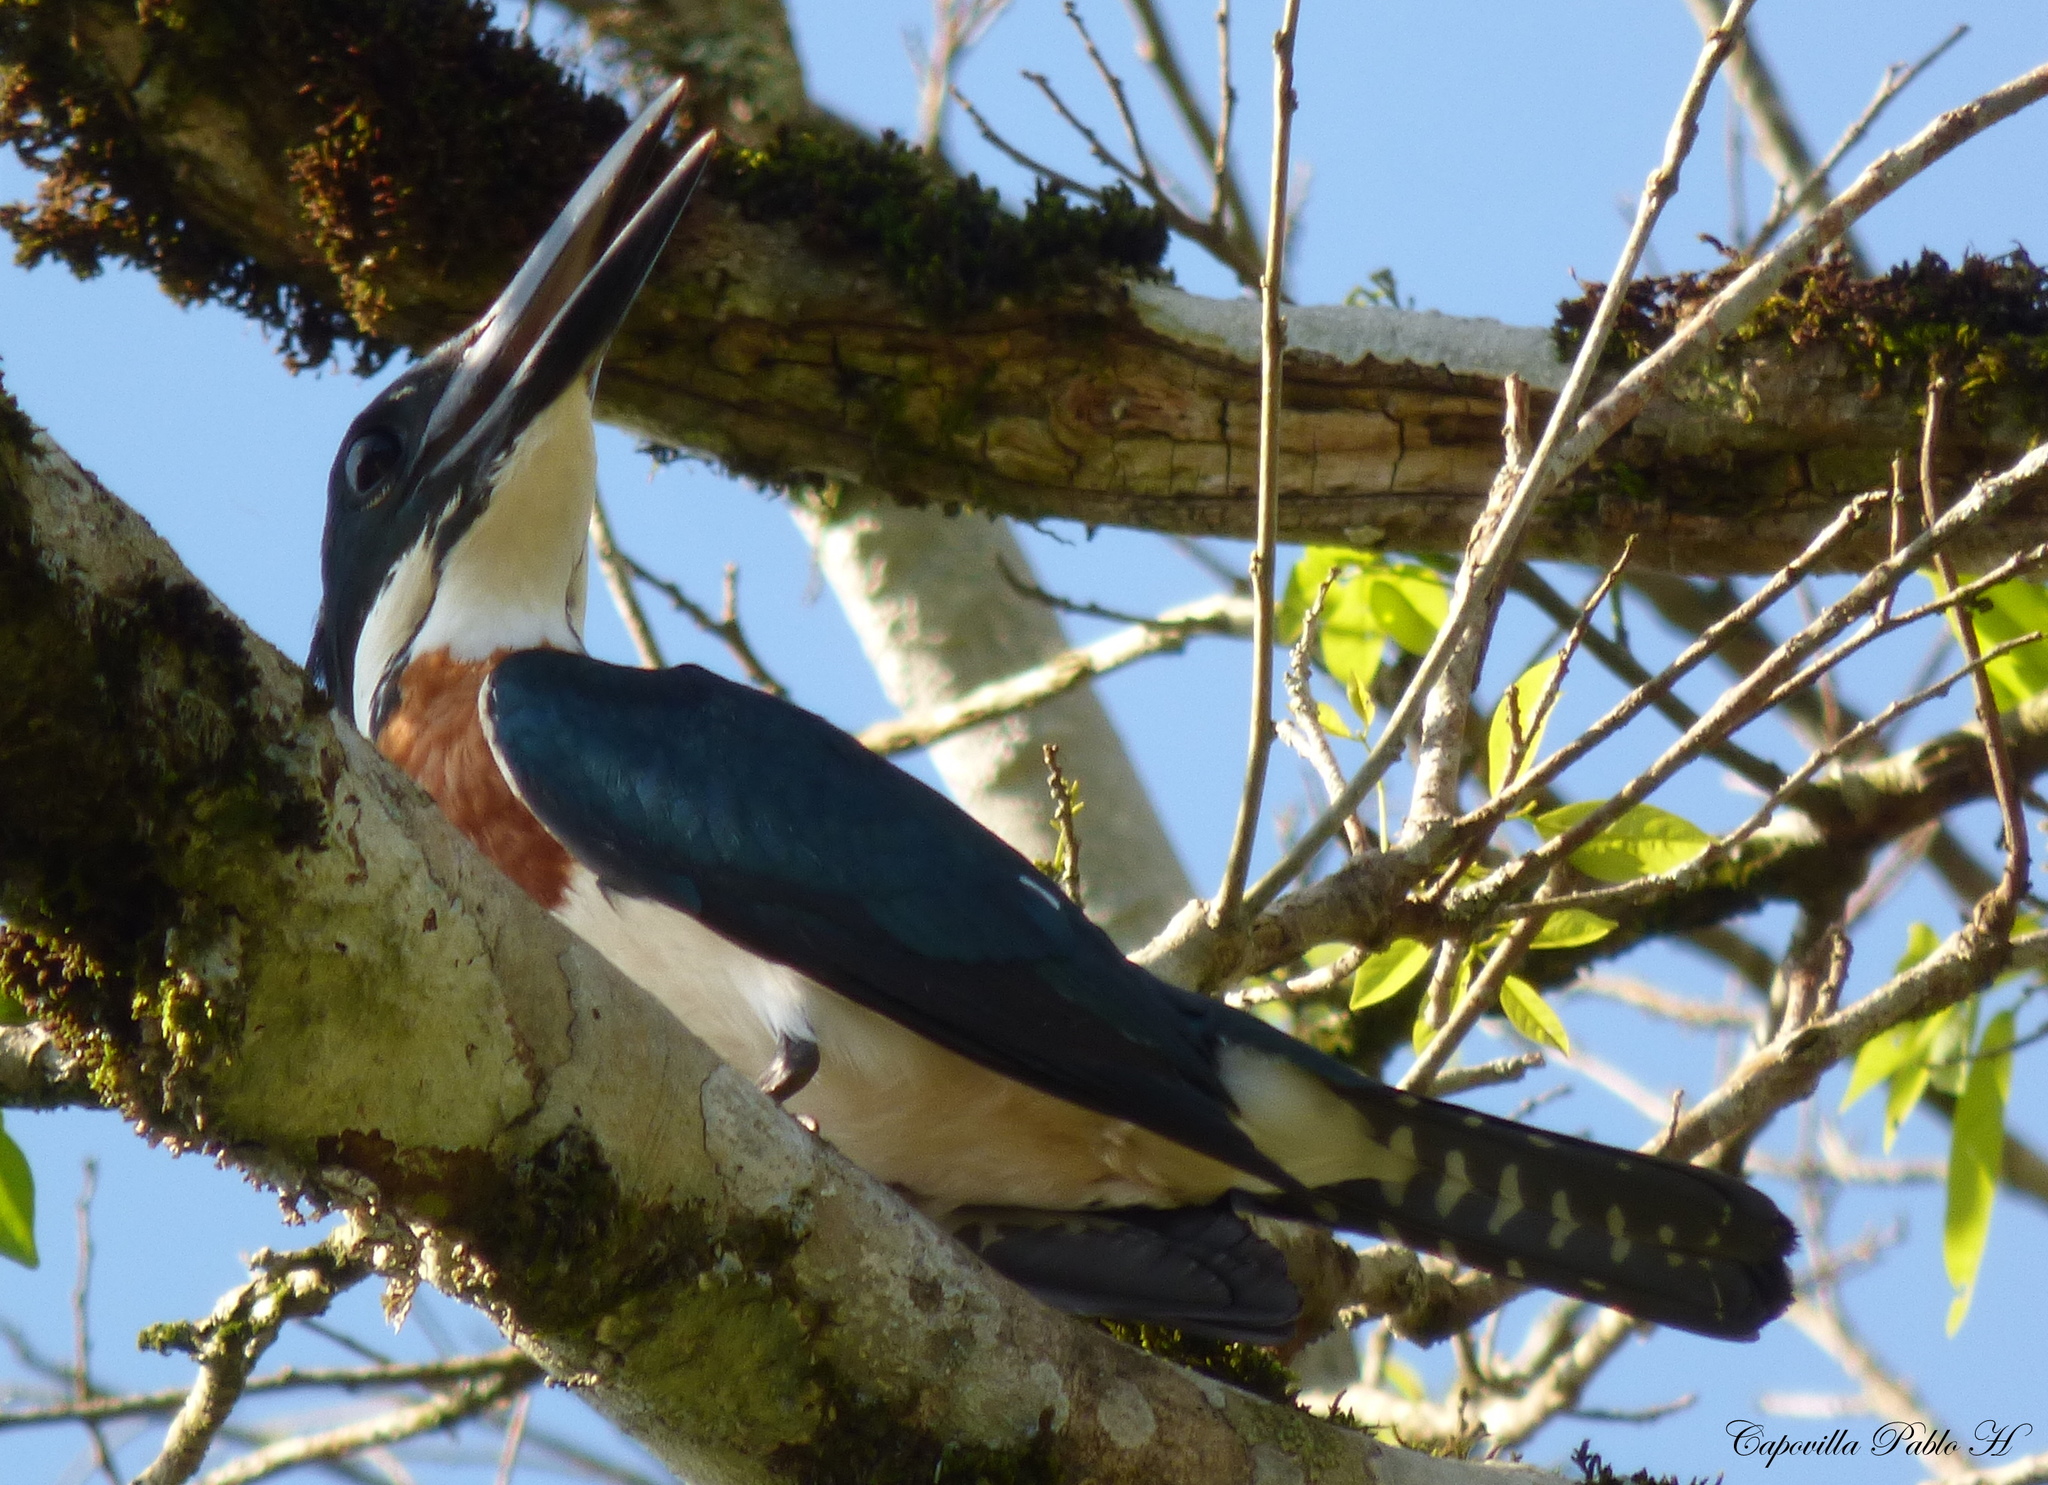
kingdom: Animalia
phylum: Chordata
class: Aves
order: Coraciiformes
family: Alcedinidae
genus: Chloroceryle
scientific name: Chloroceryle amazona
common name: Amazon kingfisher
